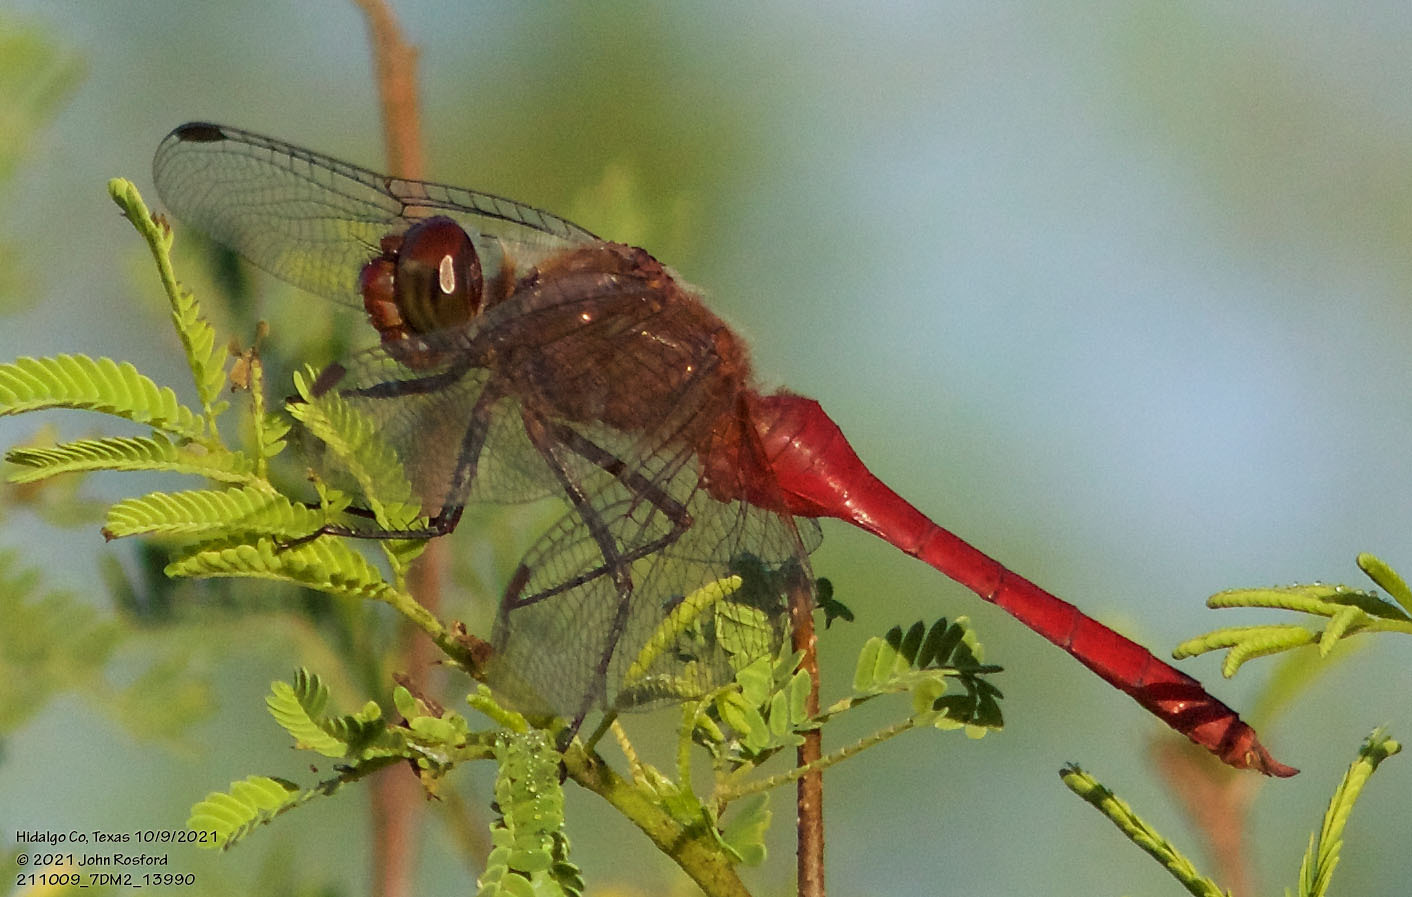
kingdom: Animalia
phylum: Arthropoda
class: Insecta
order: Odonata
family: Libellulidae
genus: Brachymesia
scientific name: Brachymesia furcata
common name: Red-taled pennant
